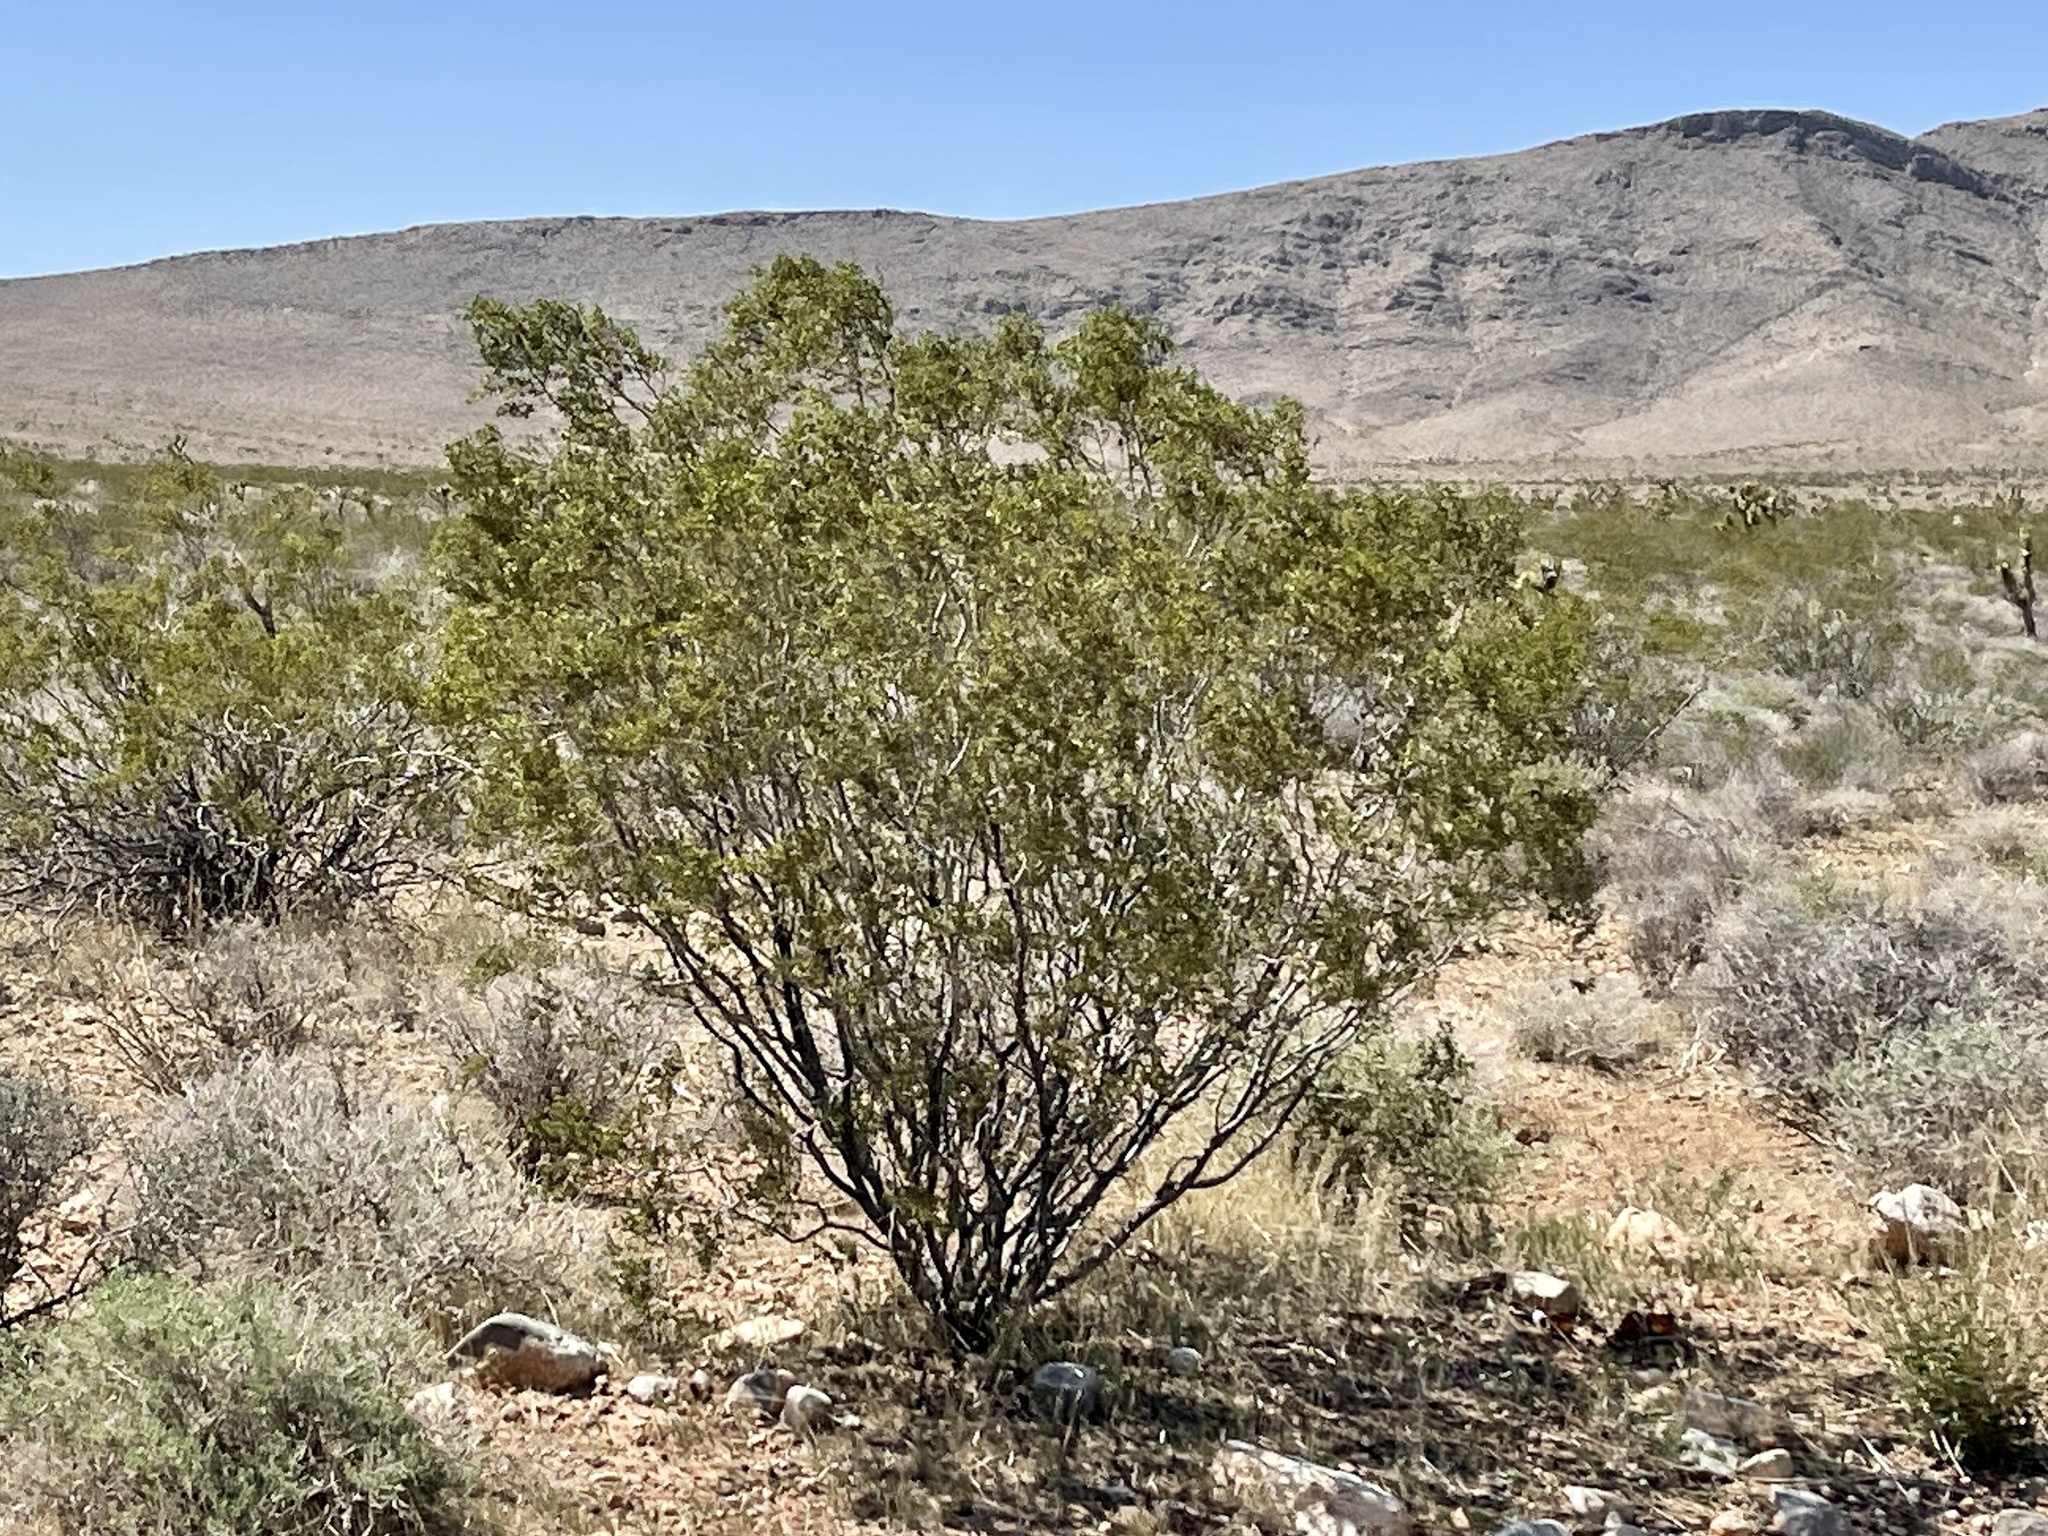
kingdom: Plantae
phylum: Tracheophyta
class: Magnoliopsida
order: Zygophyllales
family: Zygophyllaceae
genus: Larrea
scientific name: Larrea tridentata
